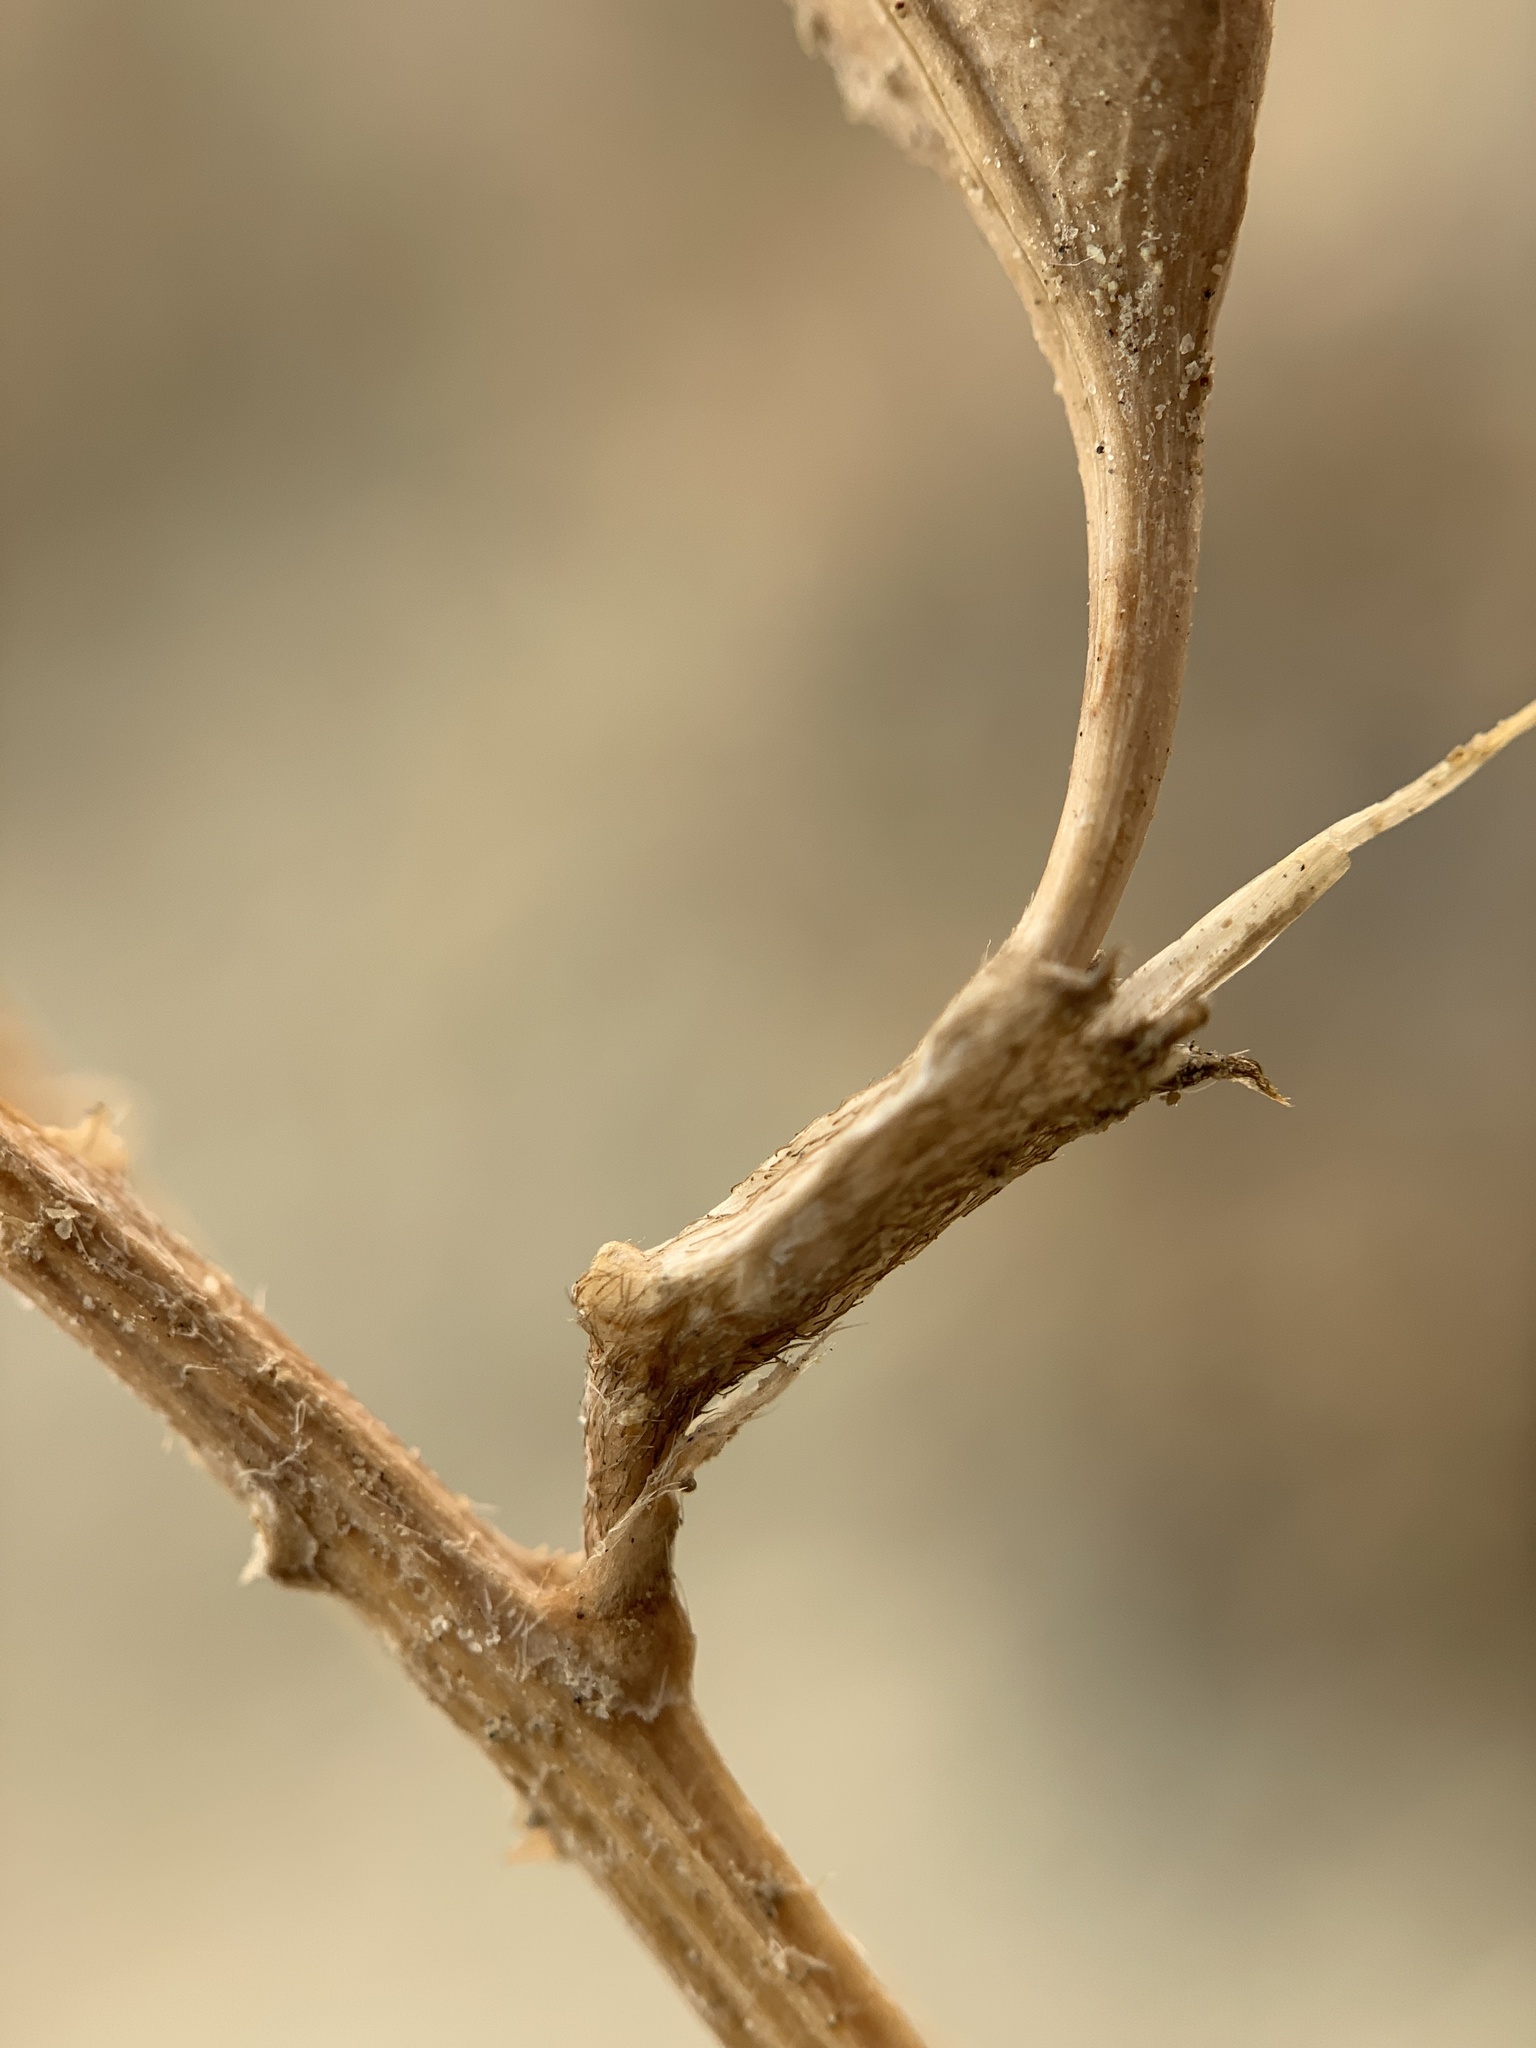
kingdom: Plantae
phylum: Tracheophyta
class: Magnoliopsida
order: Fabales
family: Fabaceae
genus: Astragalus
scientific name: Astragalus eremiticus
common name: Hermit milk-vetch
